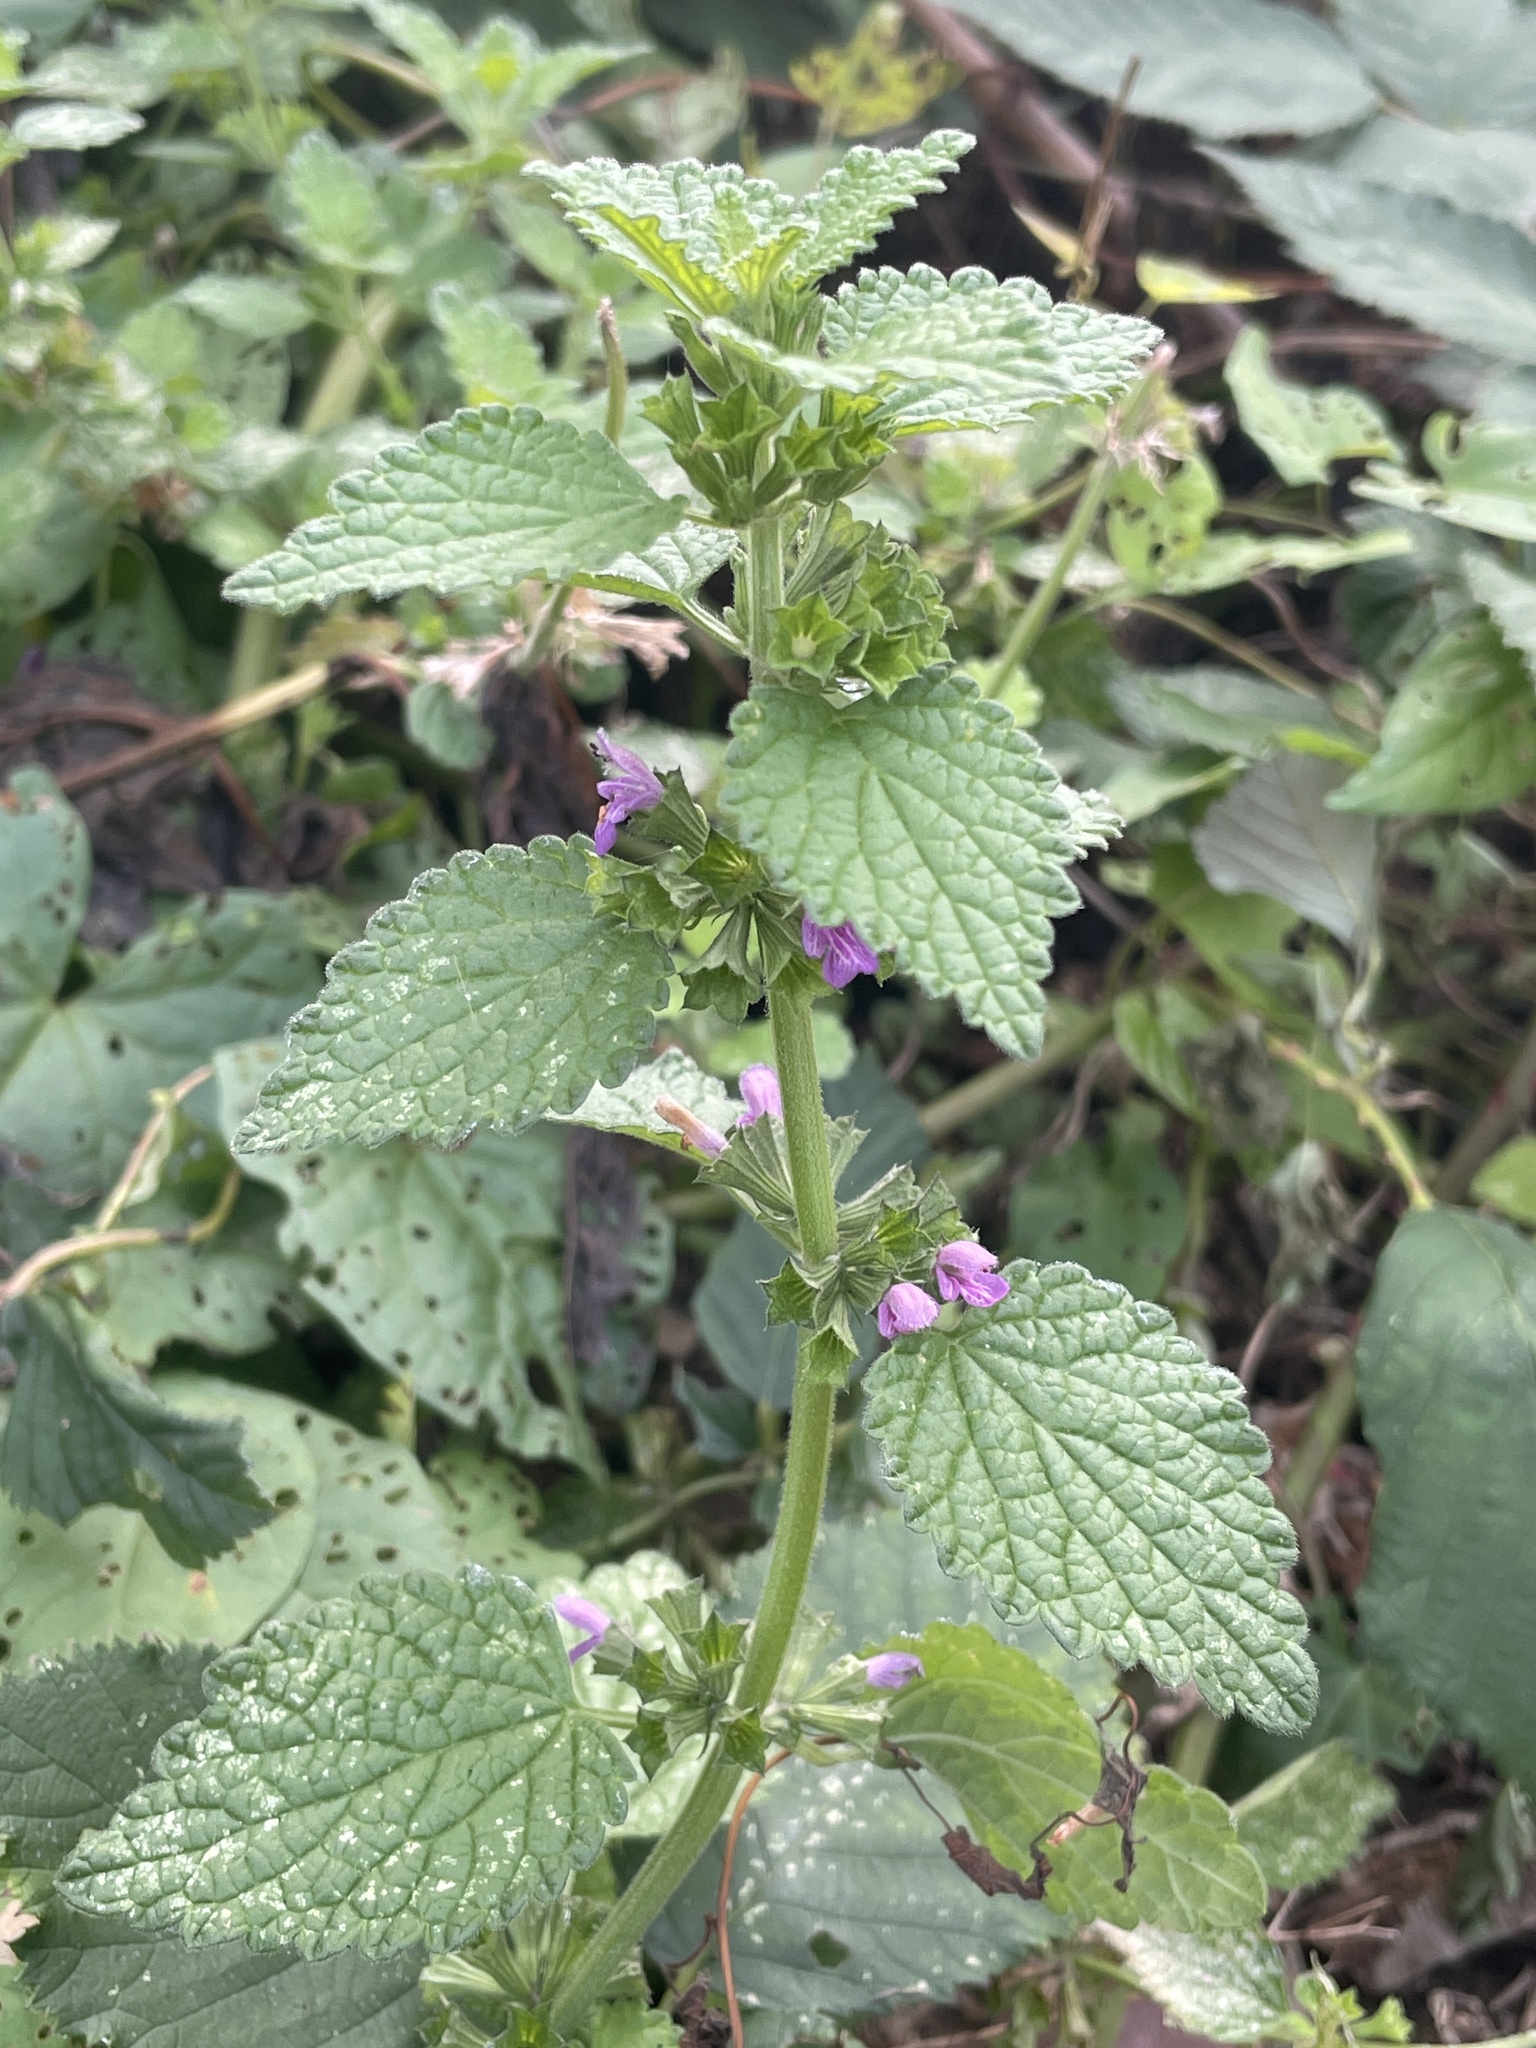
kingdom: Plantae
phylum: Tracheophyta
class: Magnoliopsida
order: Lamiales
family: Lamiaceae
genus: Ballota
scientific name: Ballota nigra
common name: Black horehound
